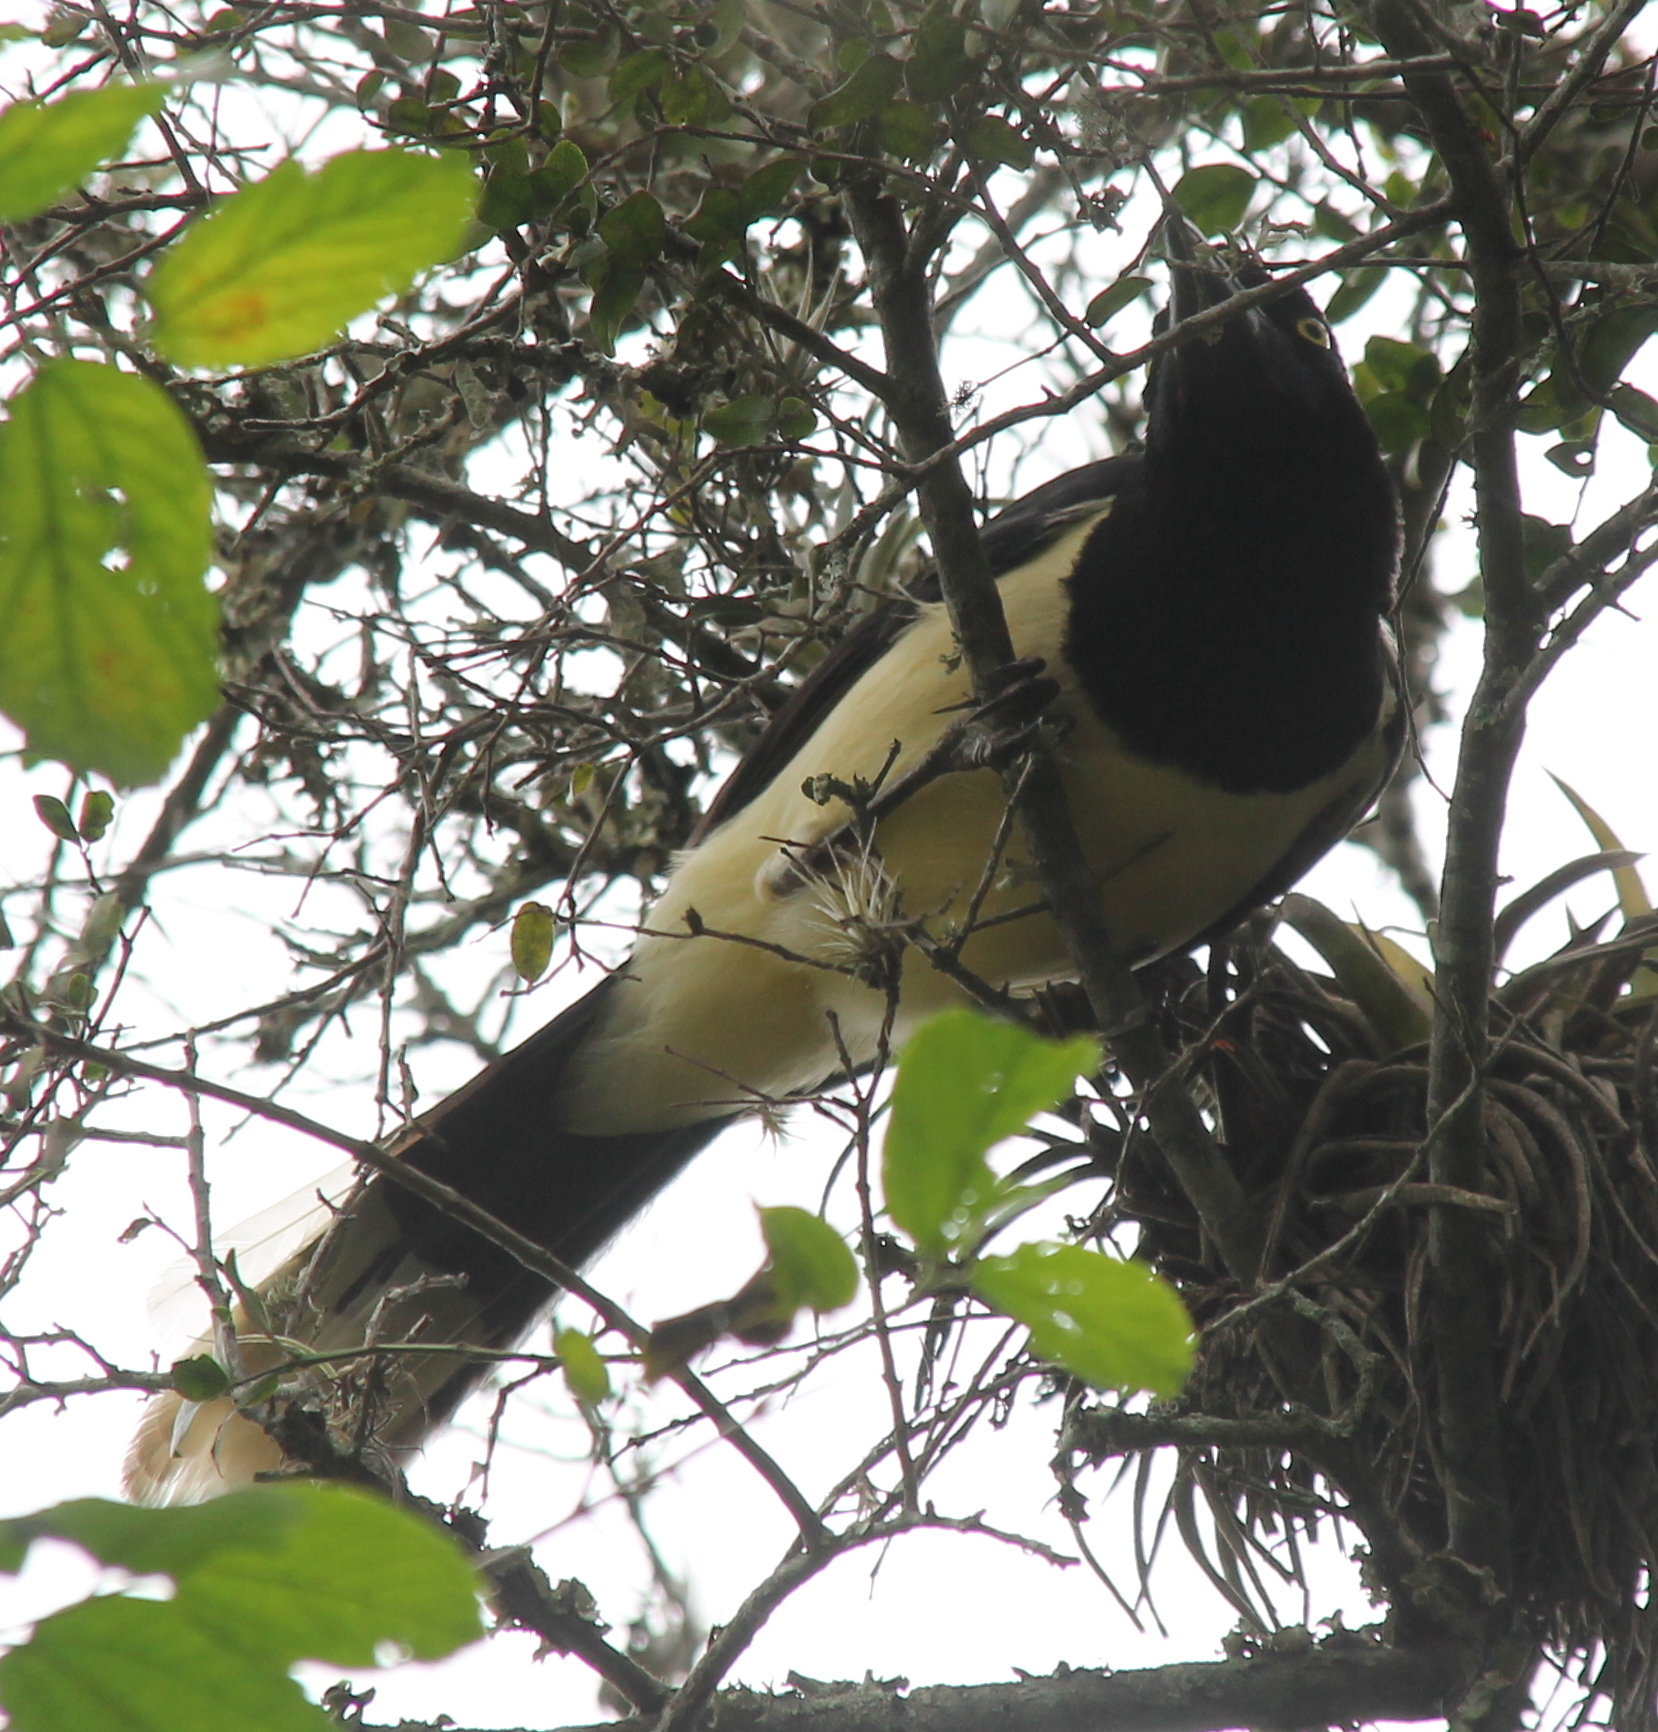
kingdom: Animalia
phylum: Chordata
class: Aves
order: Passeriformes
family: Corvidae
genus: Cyanocorax
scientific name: Cyanocorax chrysops
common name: Plush-crested jay
